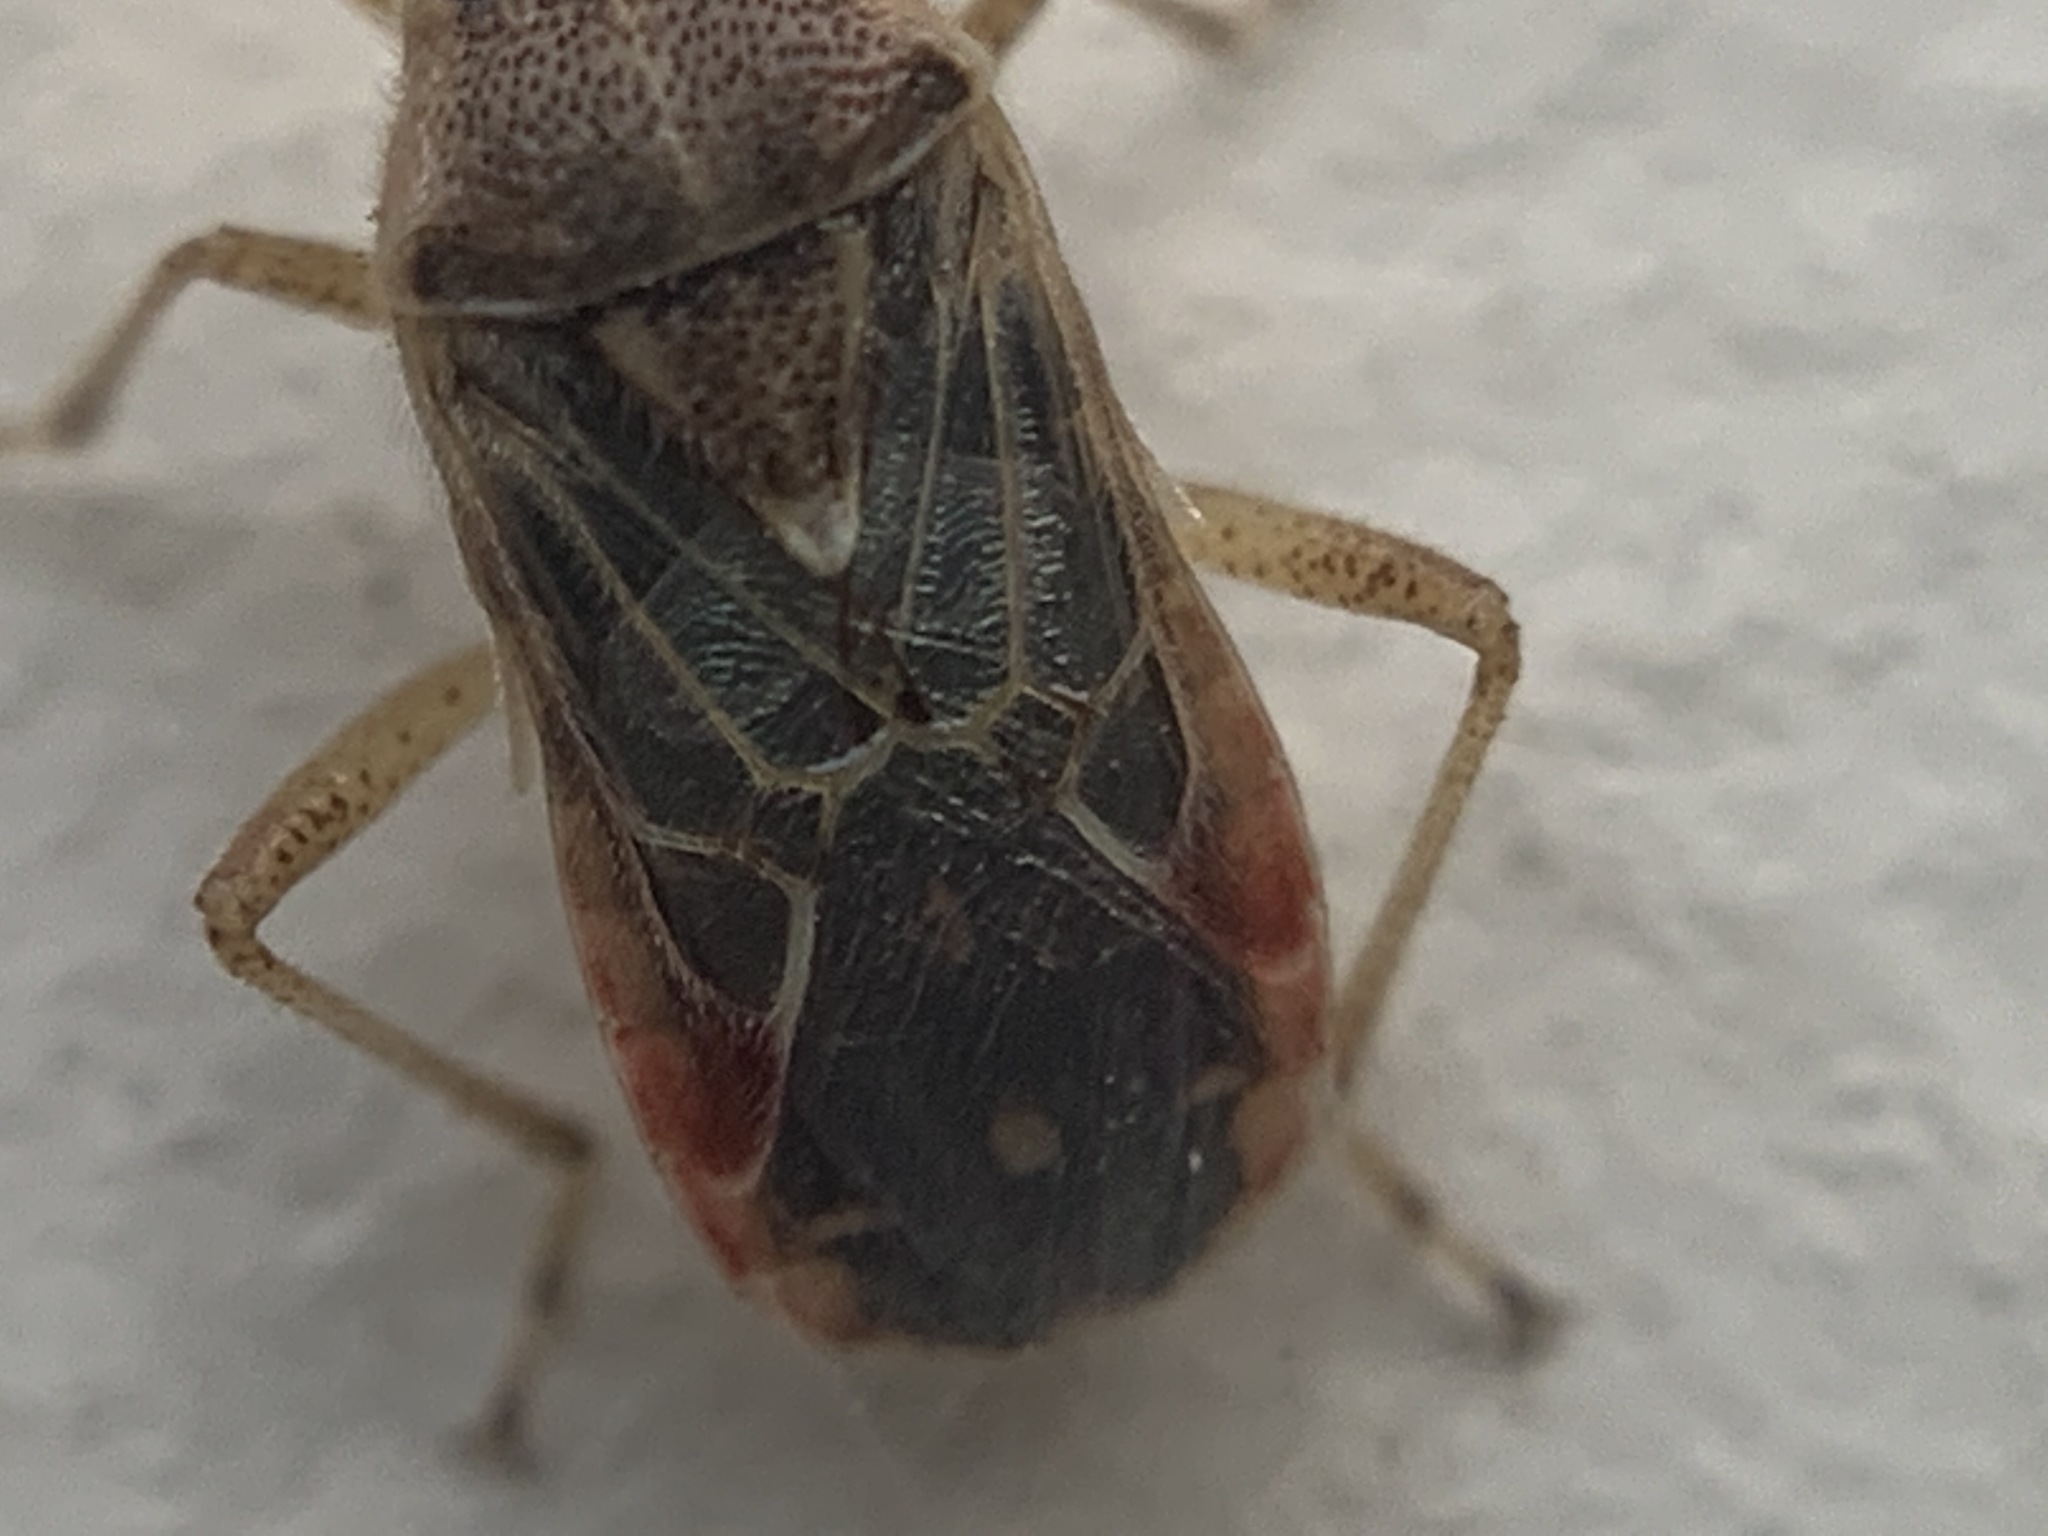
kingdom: Animalia
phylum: Arthropoda
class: Insecta
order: Hemiptera
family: Rhopalidae
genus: Liorhyssus
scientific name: Liorhyssus hyalinus
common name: Scentless plant bug
